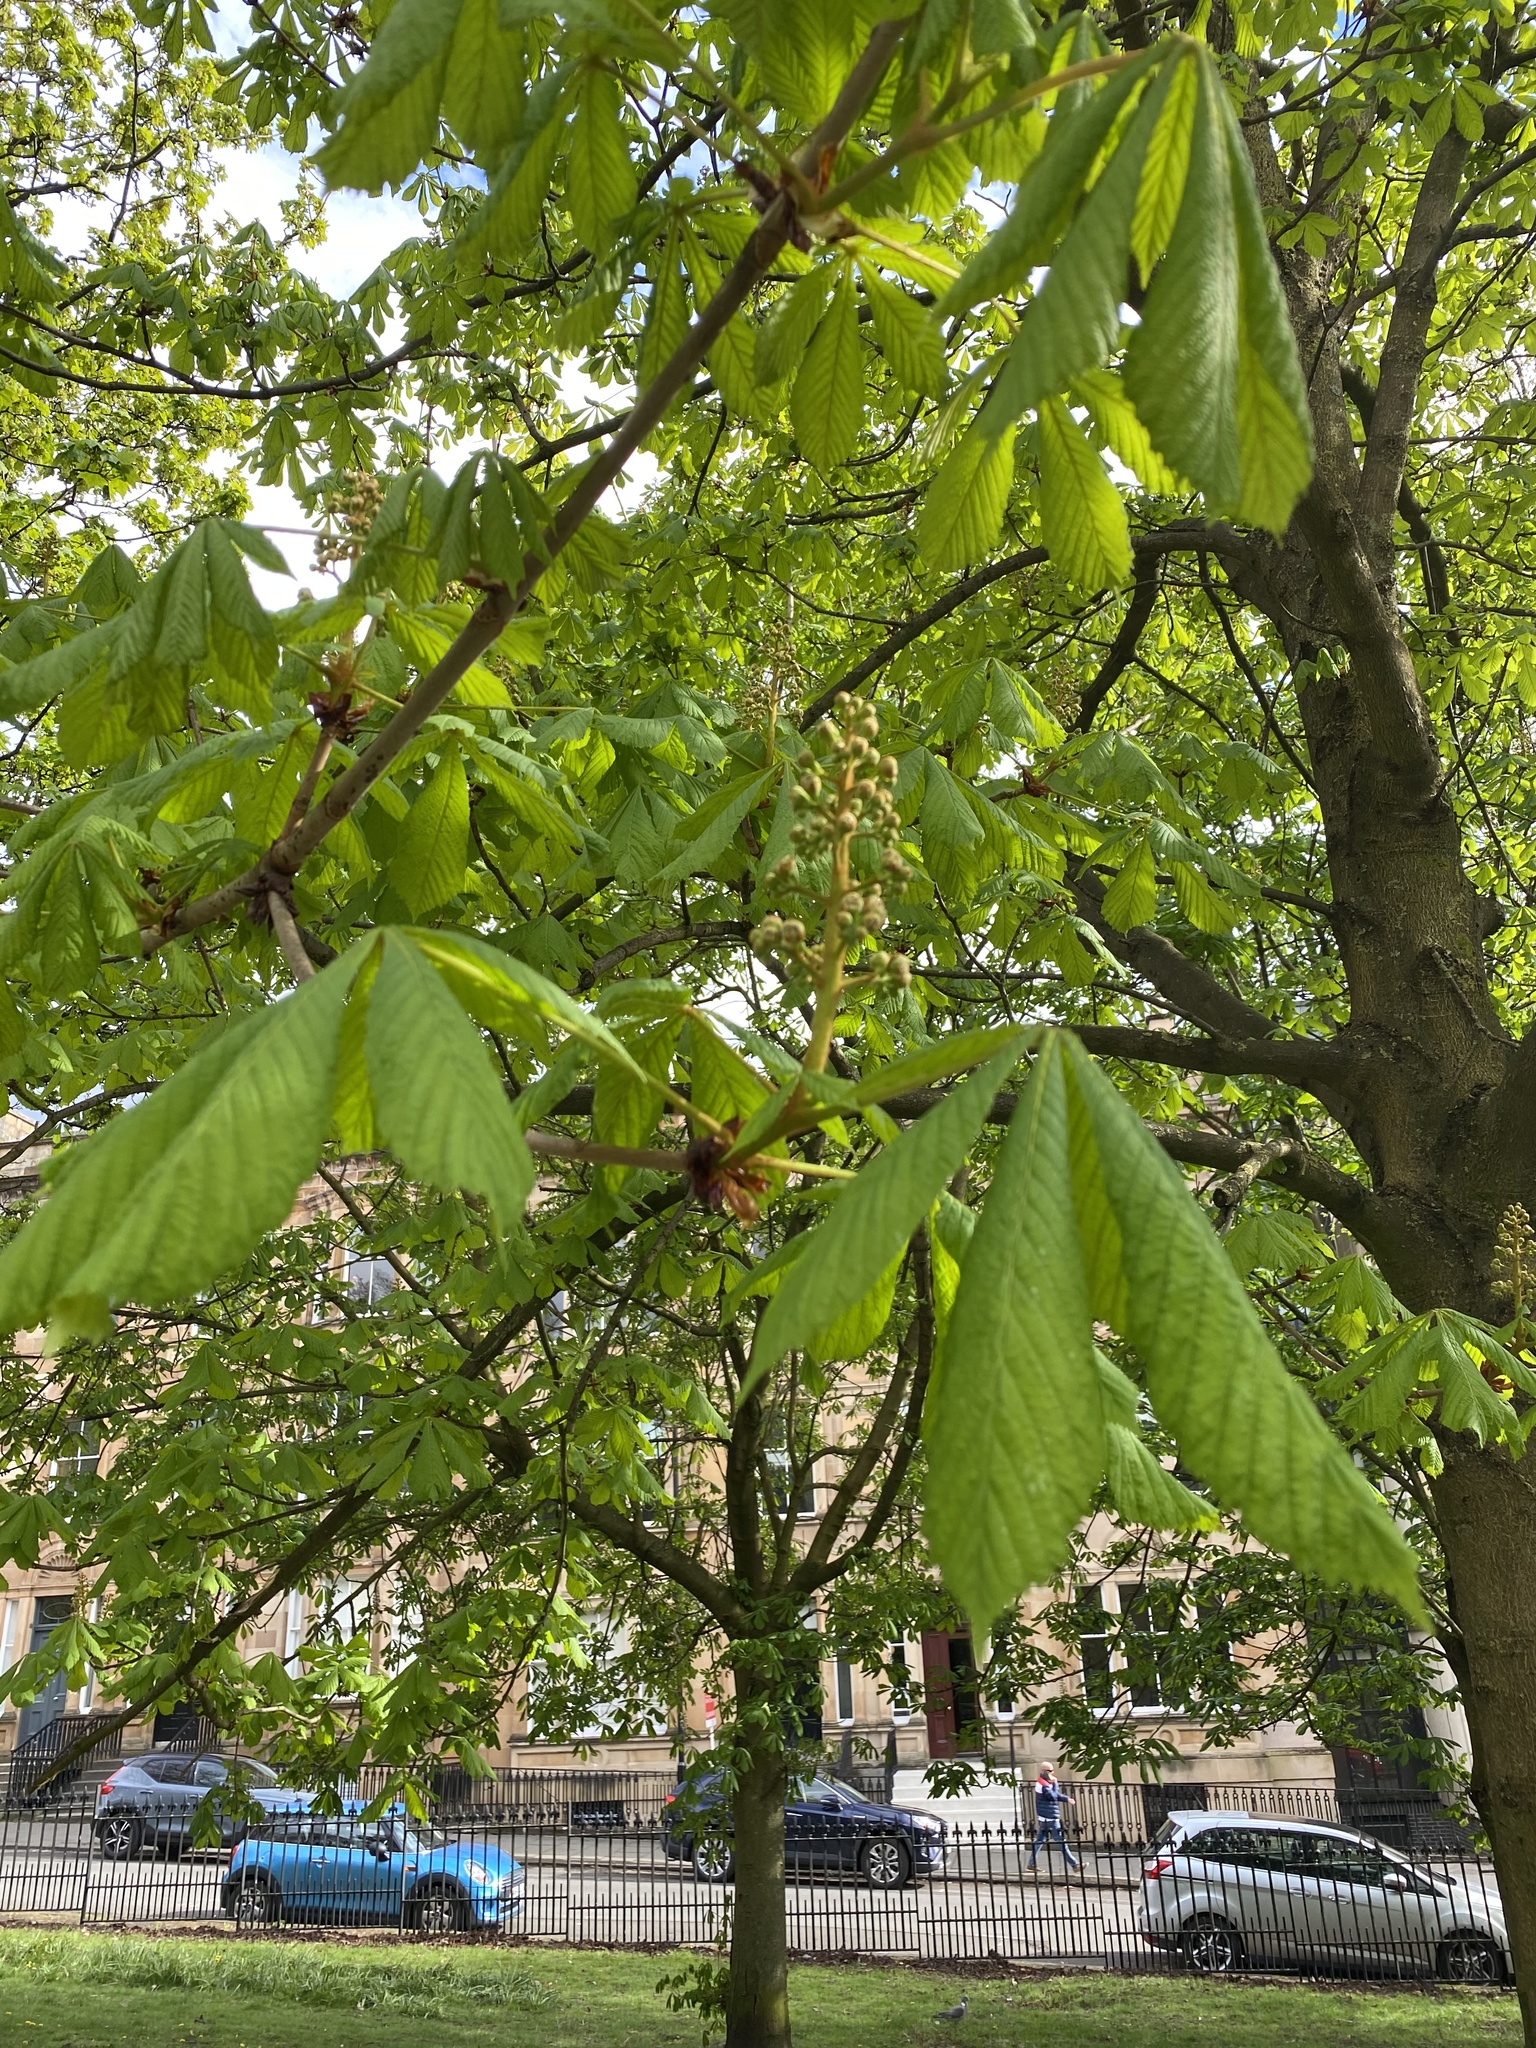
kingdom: Plantae
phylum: Tracheophyta
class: Magnoliopsida
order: Sapindales
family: Sapindaceae
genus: Aesculus
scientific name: Aesculus hippocastanum
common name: Horse-chestnut
